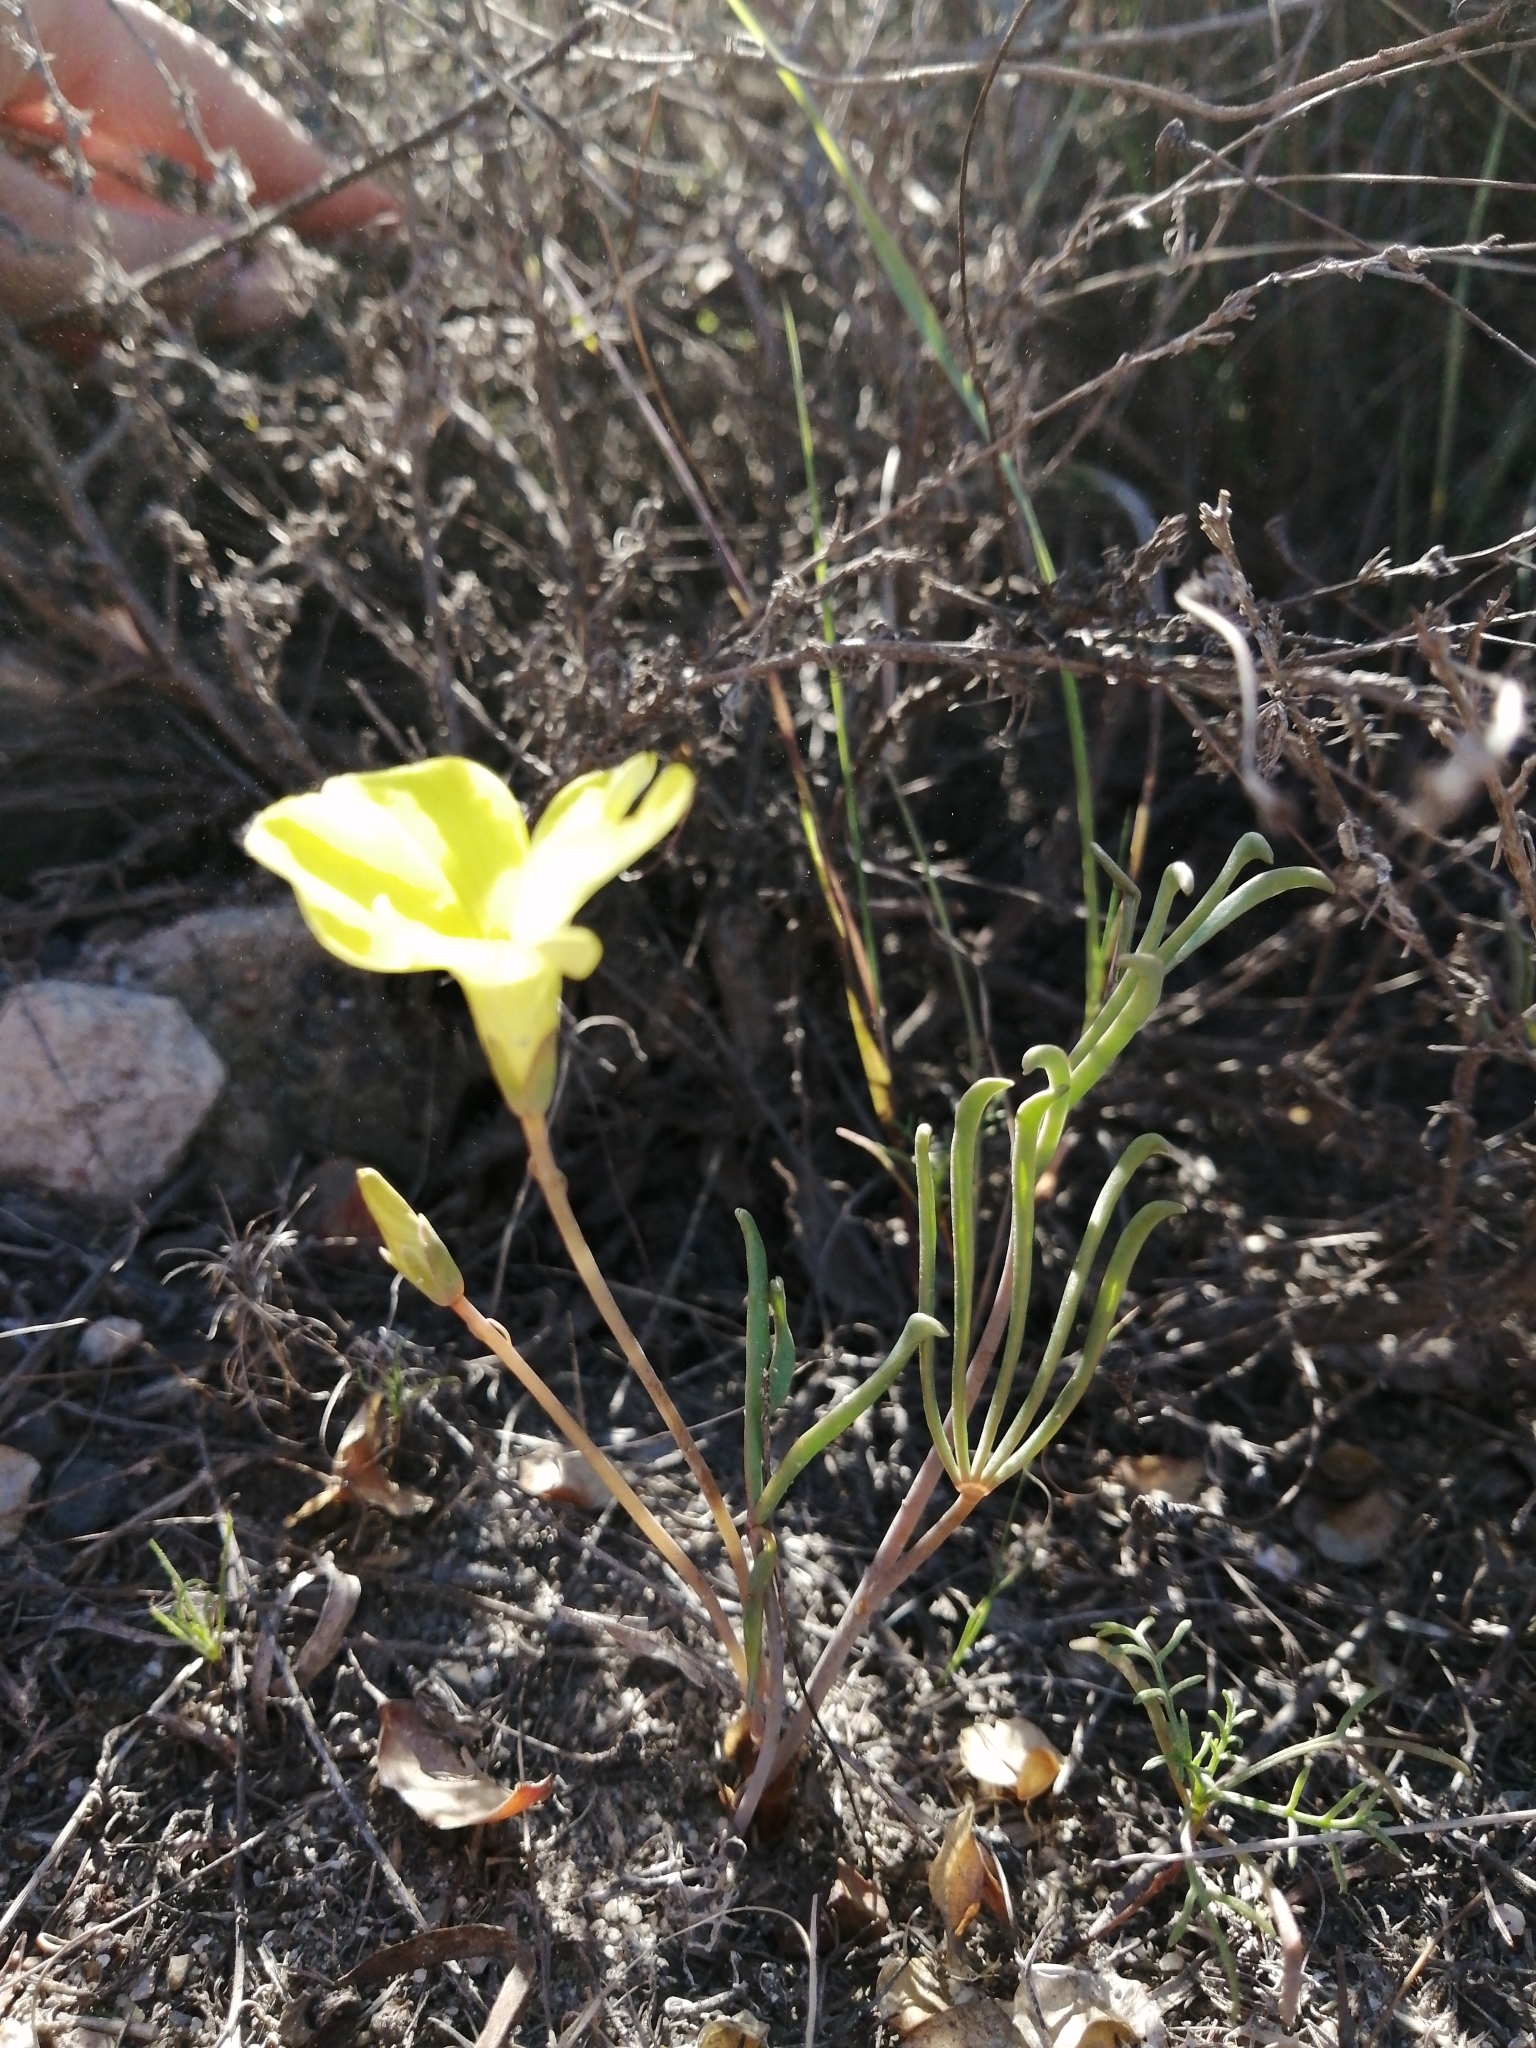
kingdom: Plantae
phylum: Tracheophyta
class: Magnoliopsida
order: Oxalidales
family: Oxalidaceae
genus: Oxalis
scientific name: Oxalis flava
